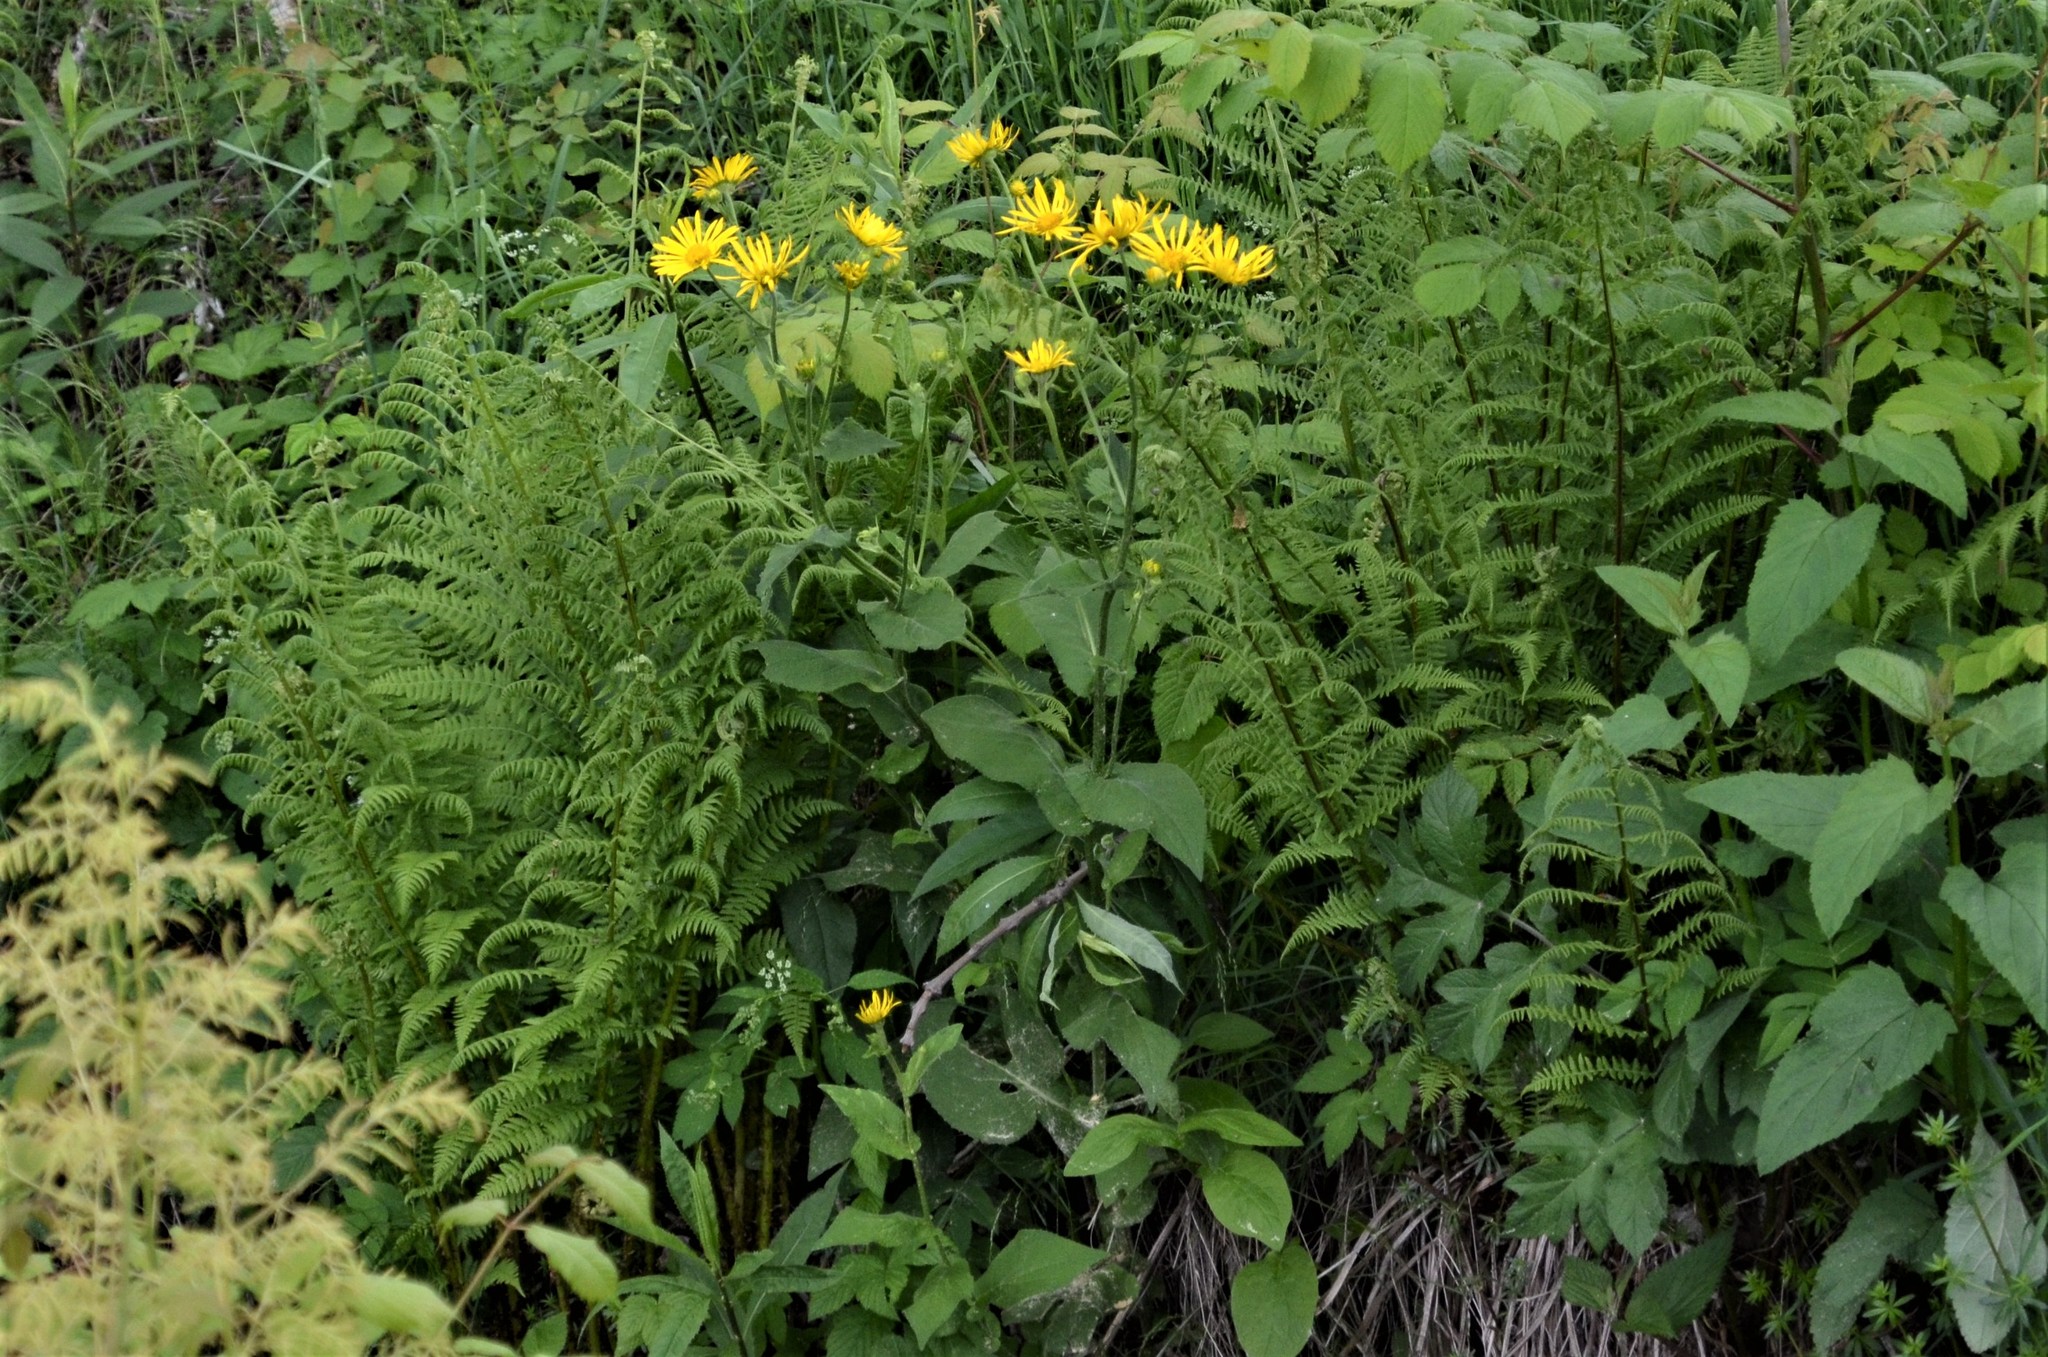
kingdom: Plantae
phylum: Tracheophyta
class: Magnoliopsida
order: Asterales
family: Asteraceae
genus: Doronicum
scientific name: Doronicum austriacum
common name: Austrian leopard's-bane
